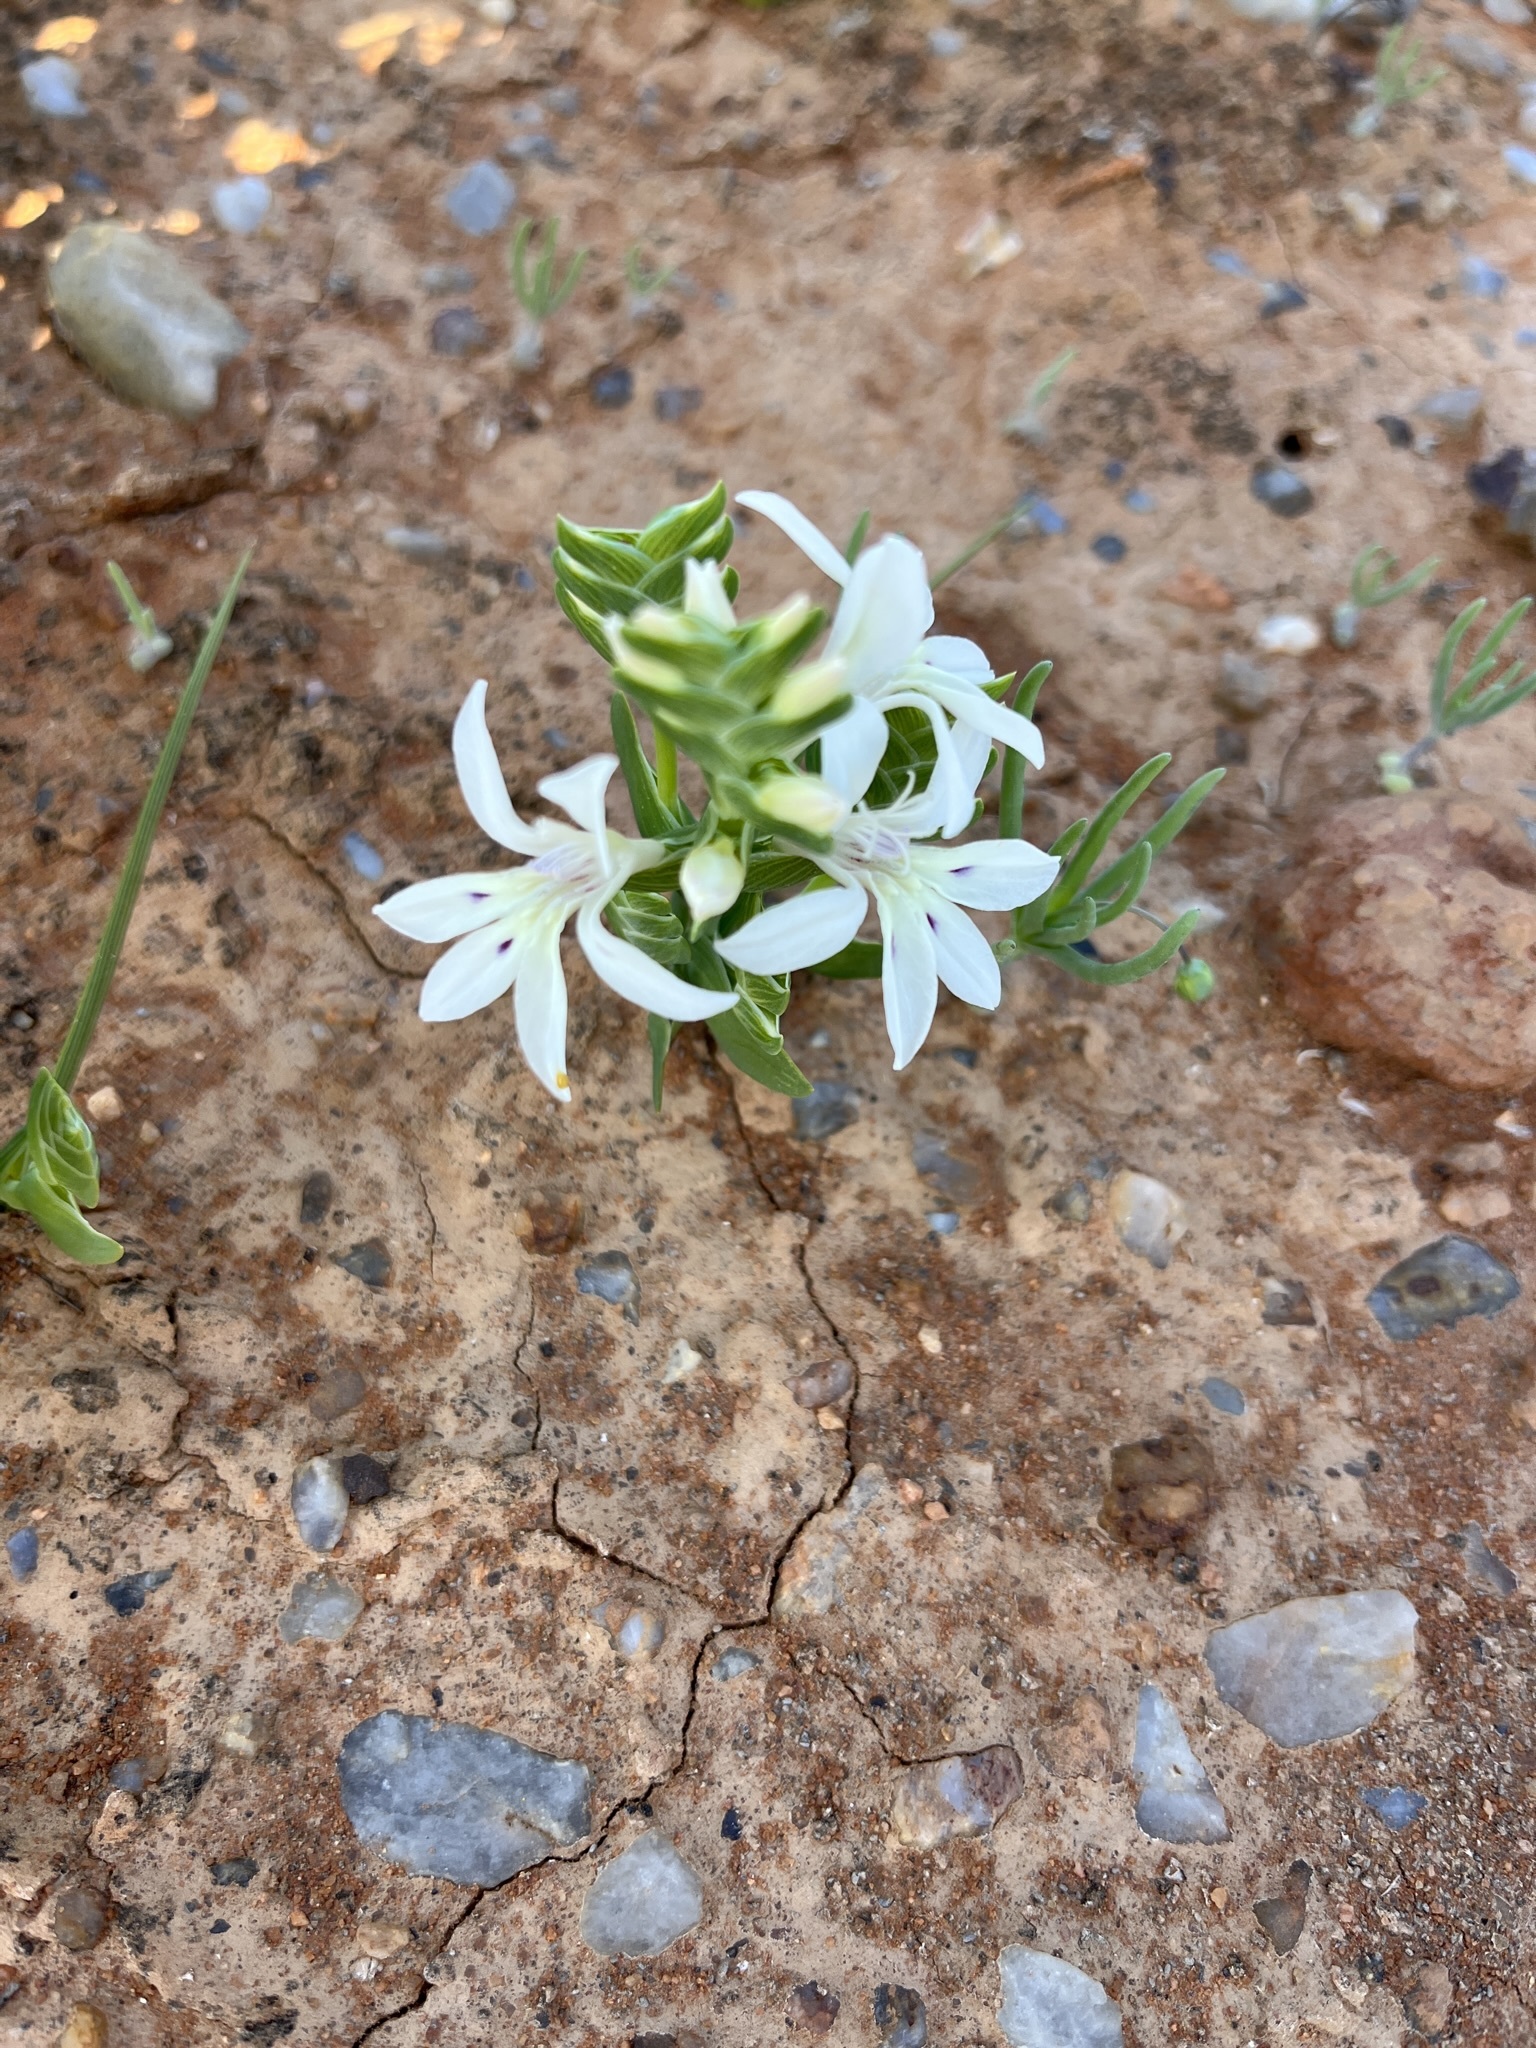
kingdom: Plantae
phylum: Tracheophyta
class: Liliopsida
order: Asparagales
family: Iridaceae
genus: Lapeirousia
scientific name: Lapeirousia spinosa
